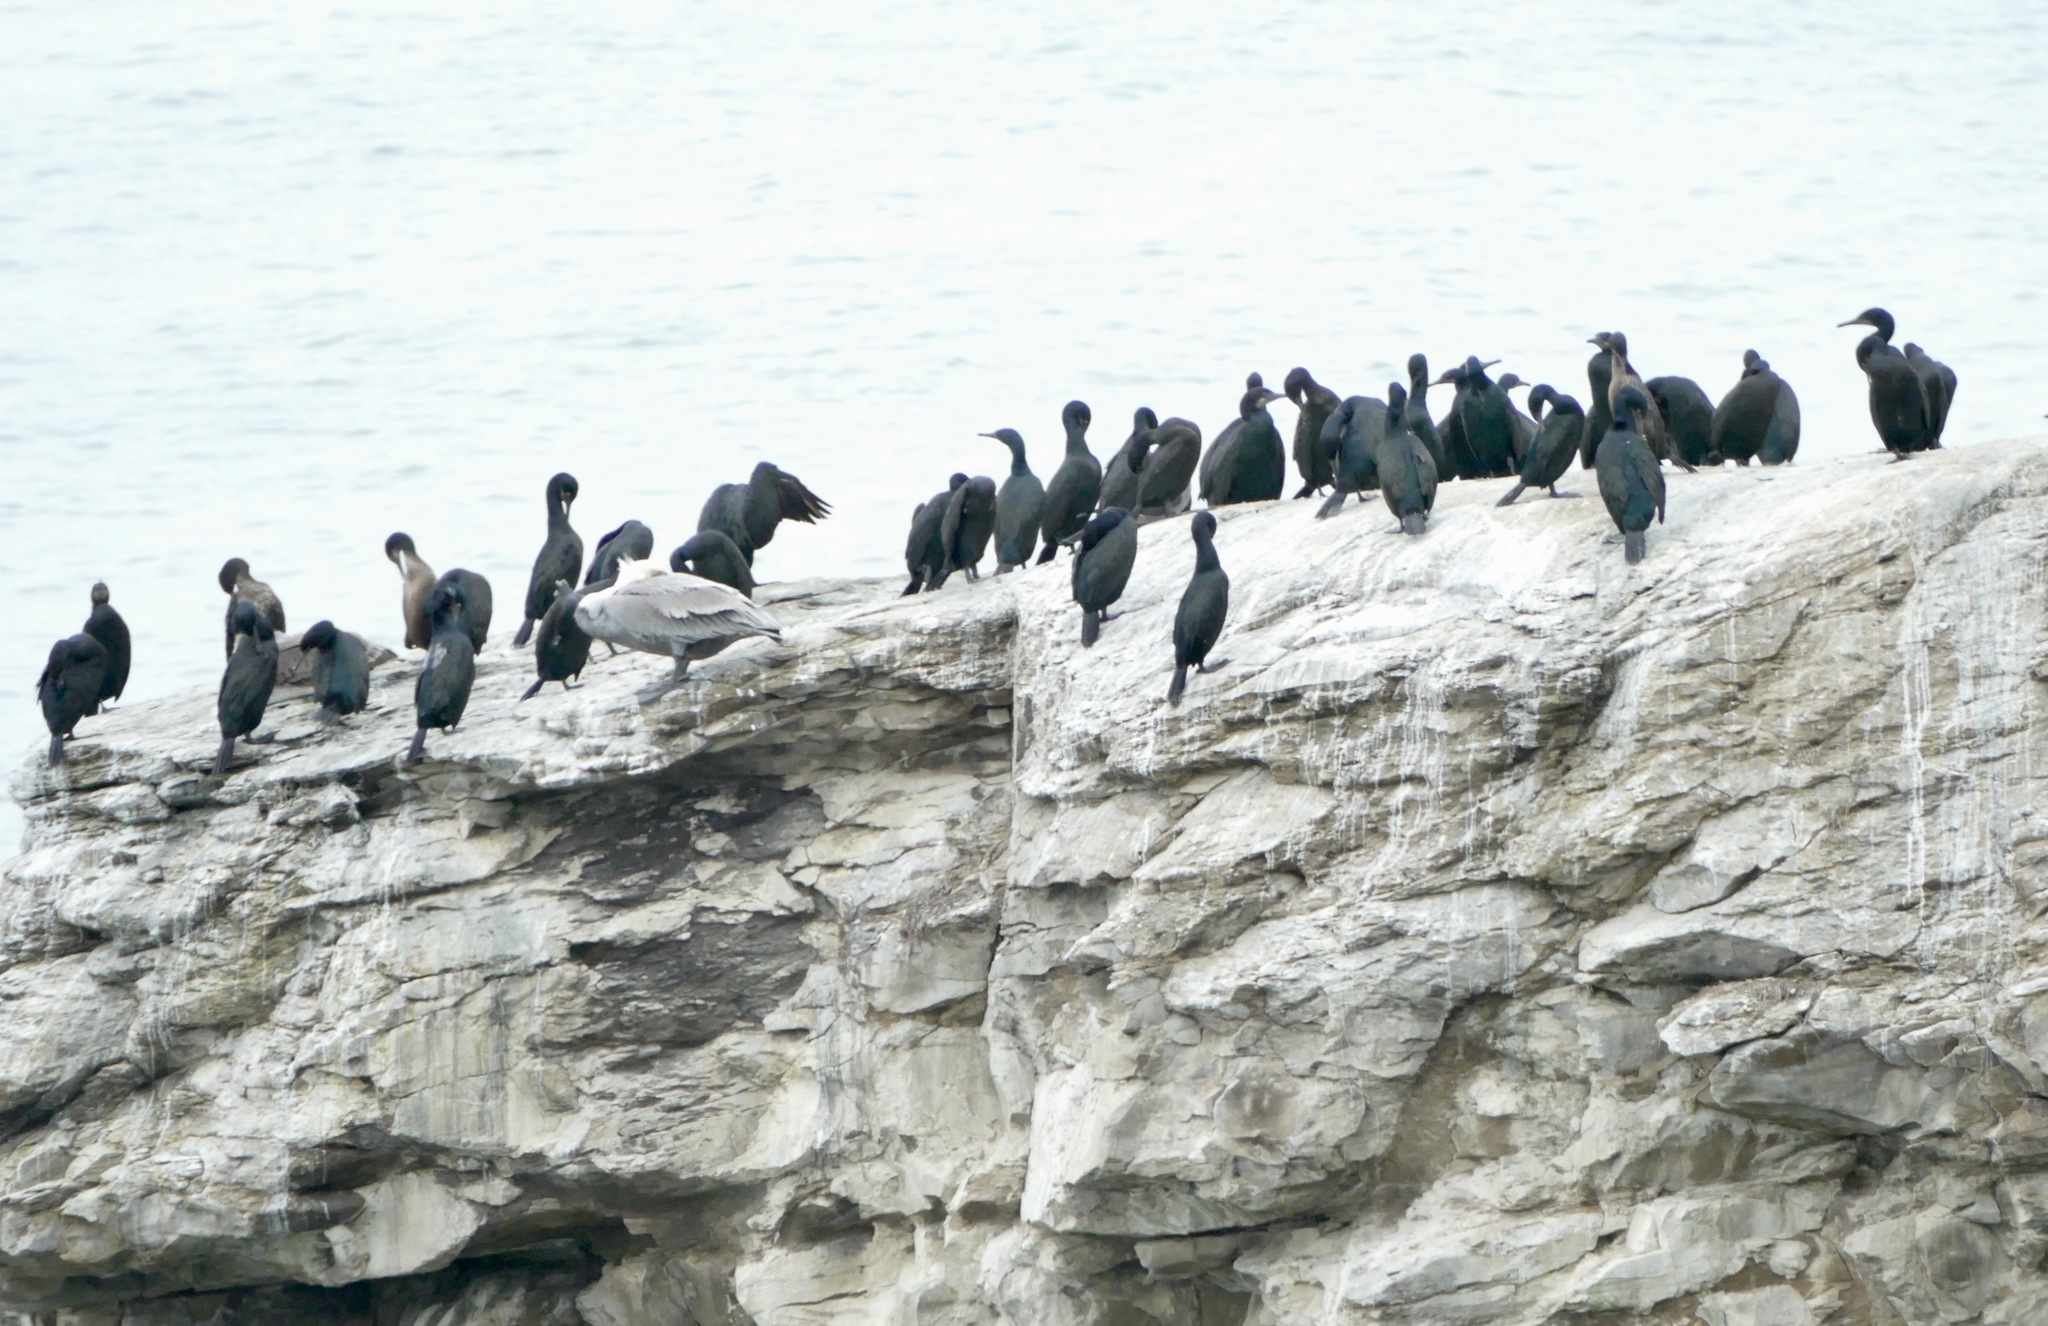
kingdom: Animalia
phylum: Chordata
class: Aves
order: Suliformes
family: Phalacrocoracidae
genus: Urile
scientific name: Urile penicillatus
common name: Brandt's cormorant
